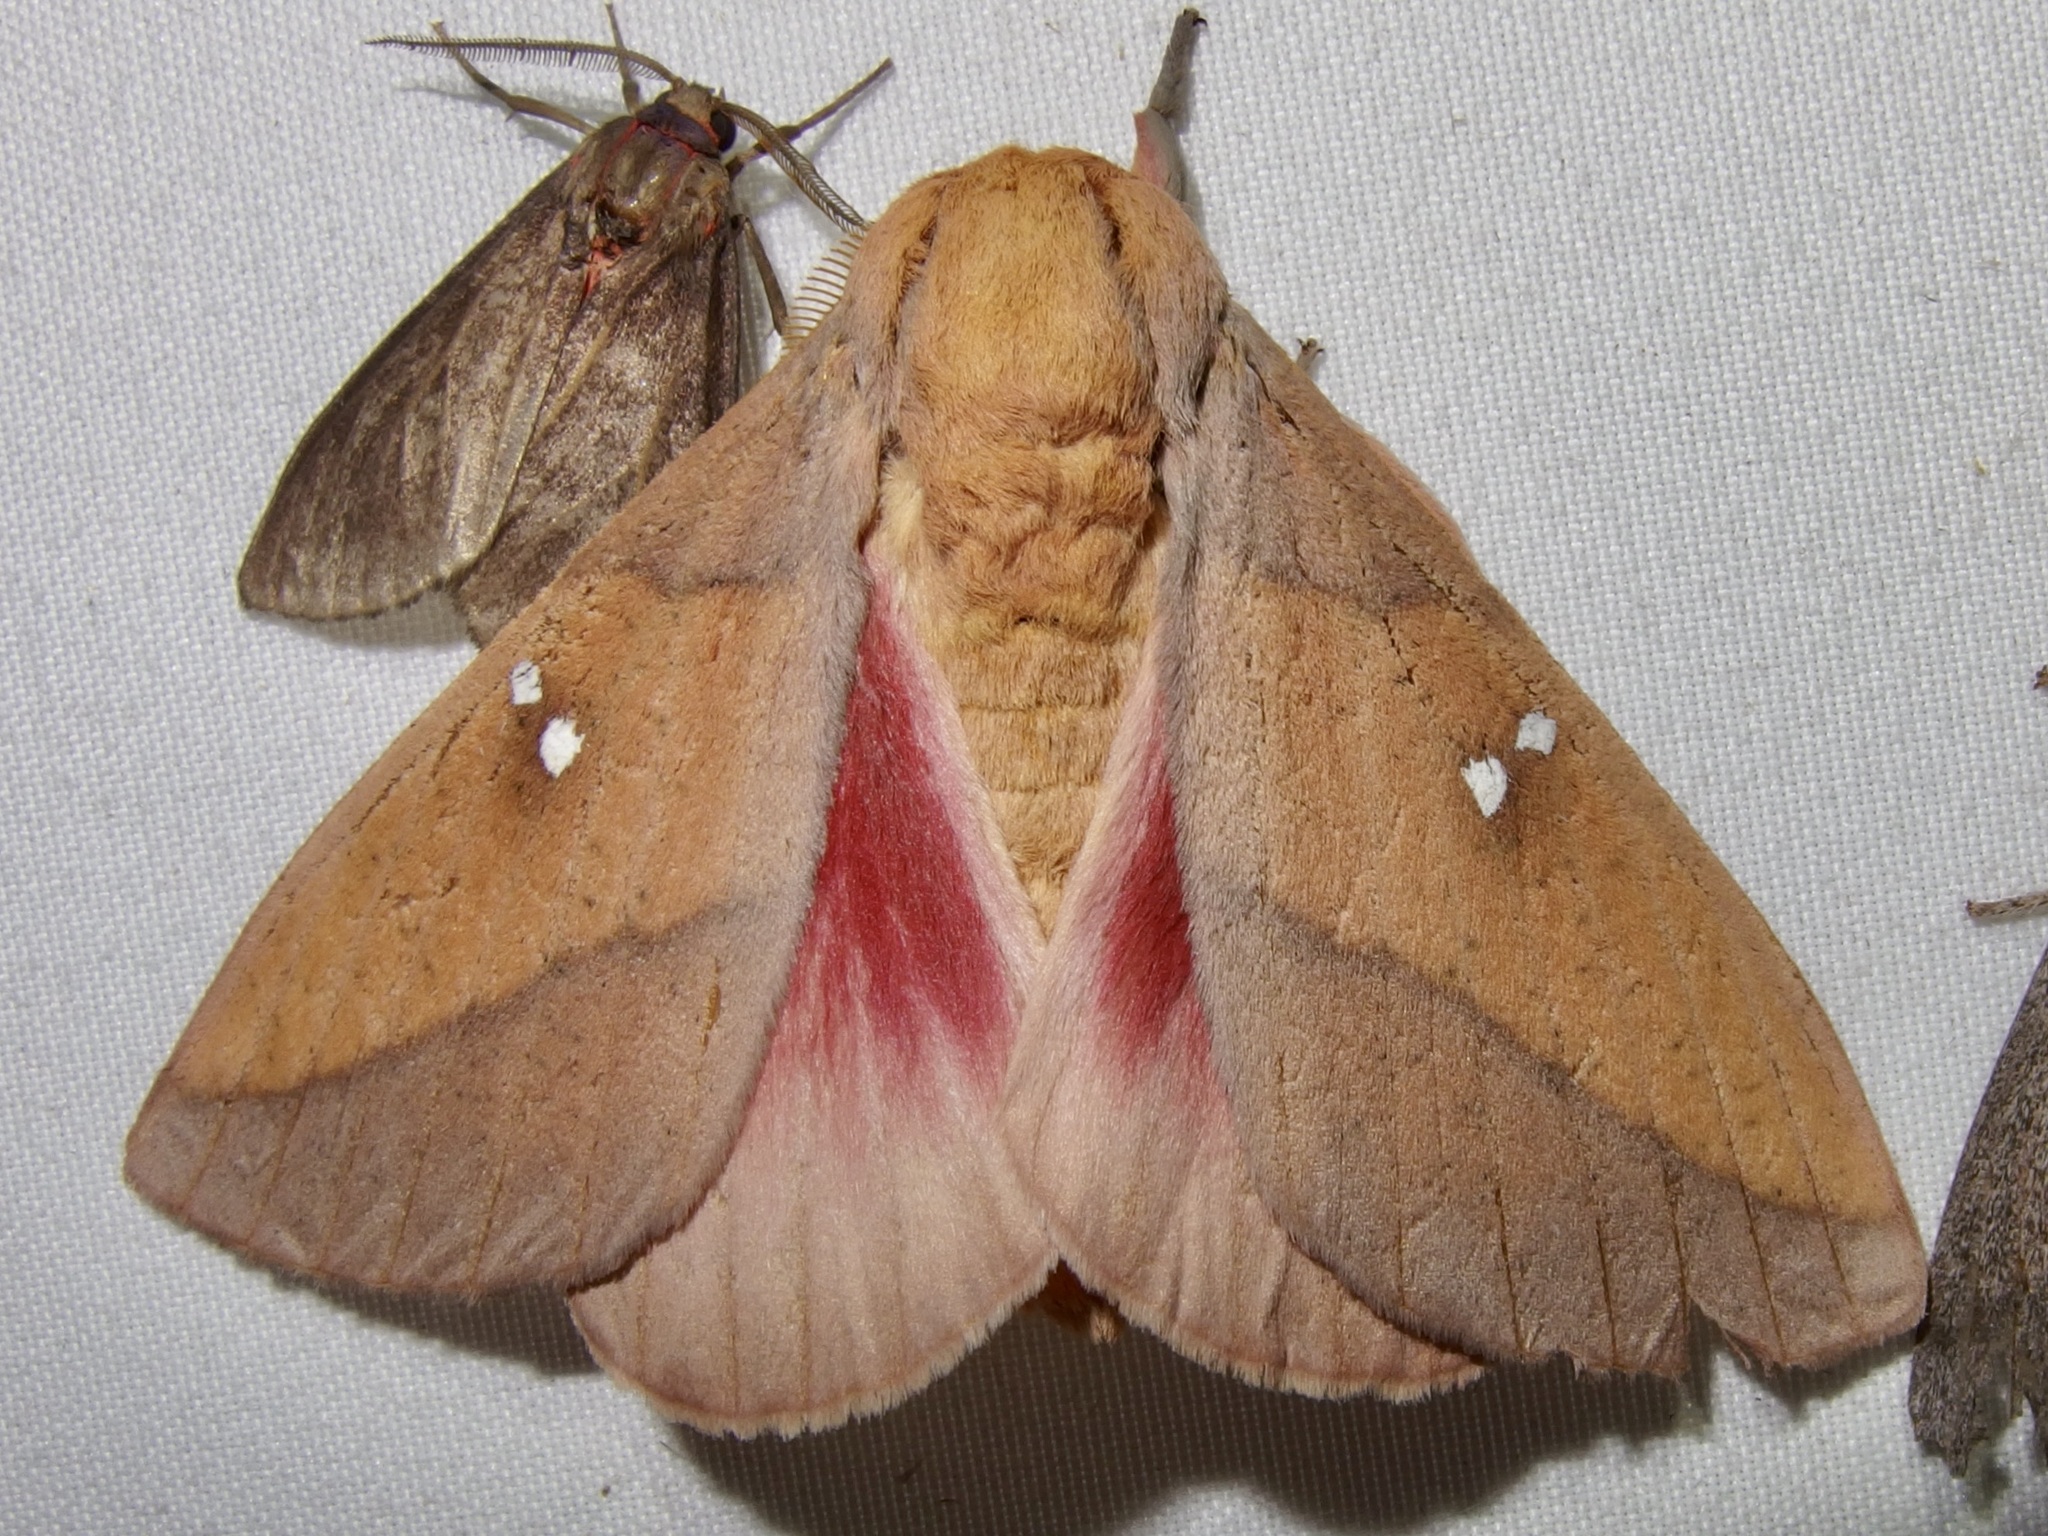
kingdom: Animalia
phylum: Arthropoda
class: Insecta
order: Lepidoptera
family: Saturniidae
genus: Syssphinx
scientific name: Syssphinx montana
